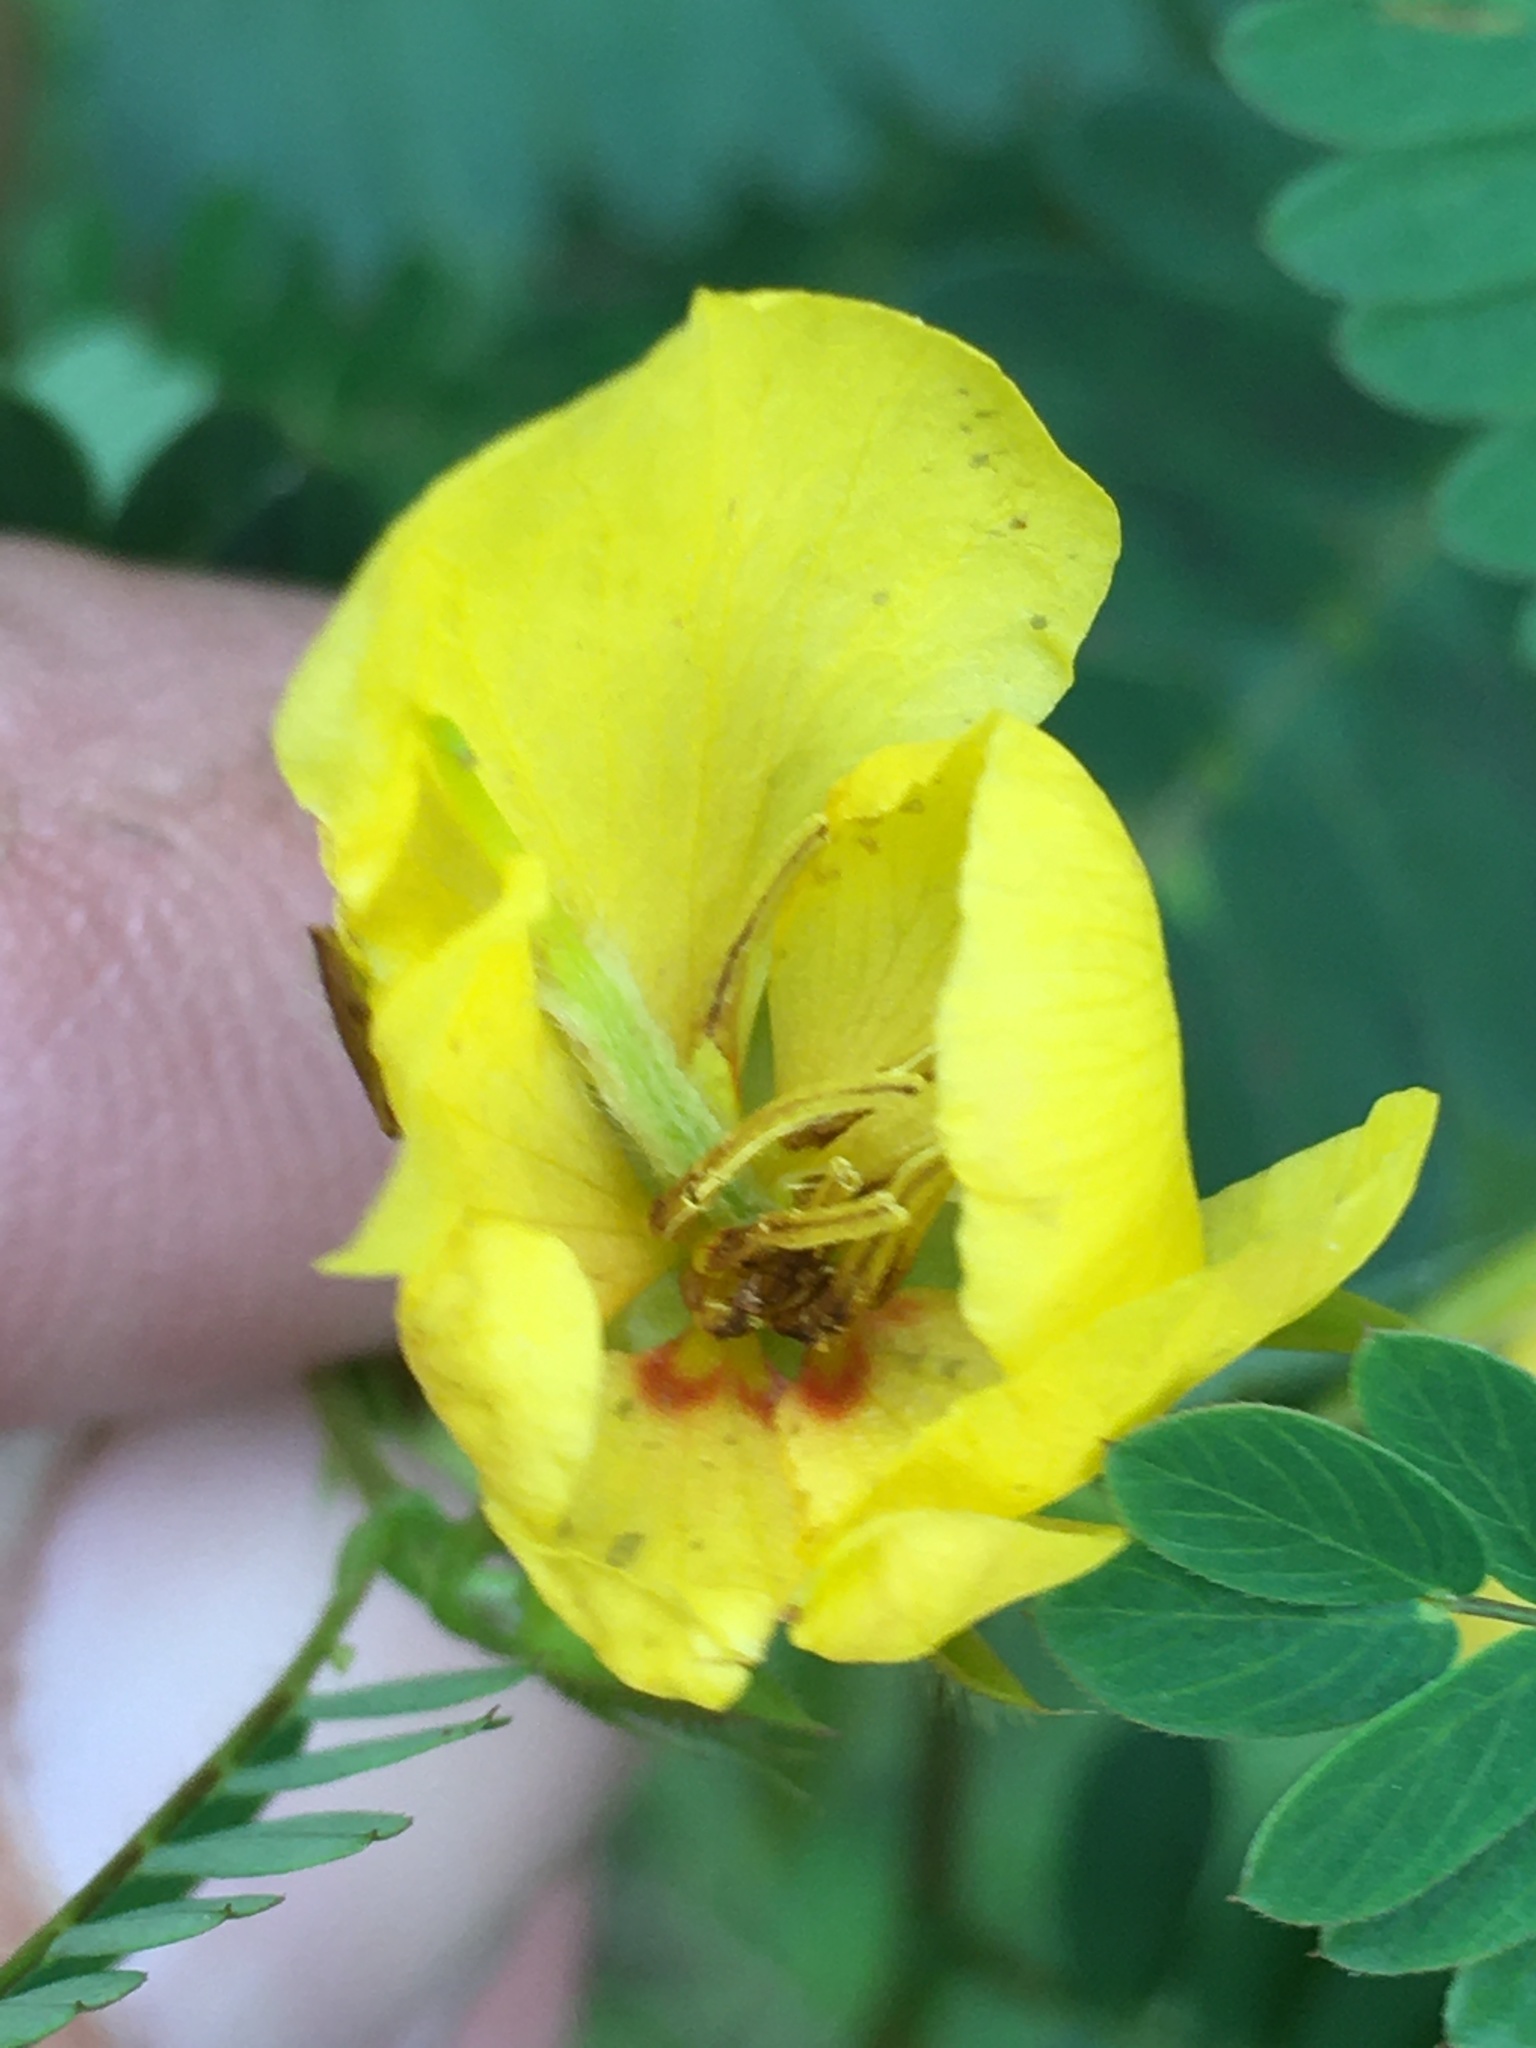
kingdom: Plantae
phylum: Tracheophyta
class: Magnoliopsida
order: Fabales
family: Fabaceae
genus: Chamaecrista
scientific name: Chamaecrista fasciculata
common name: Golden cassia
